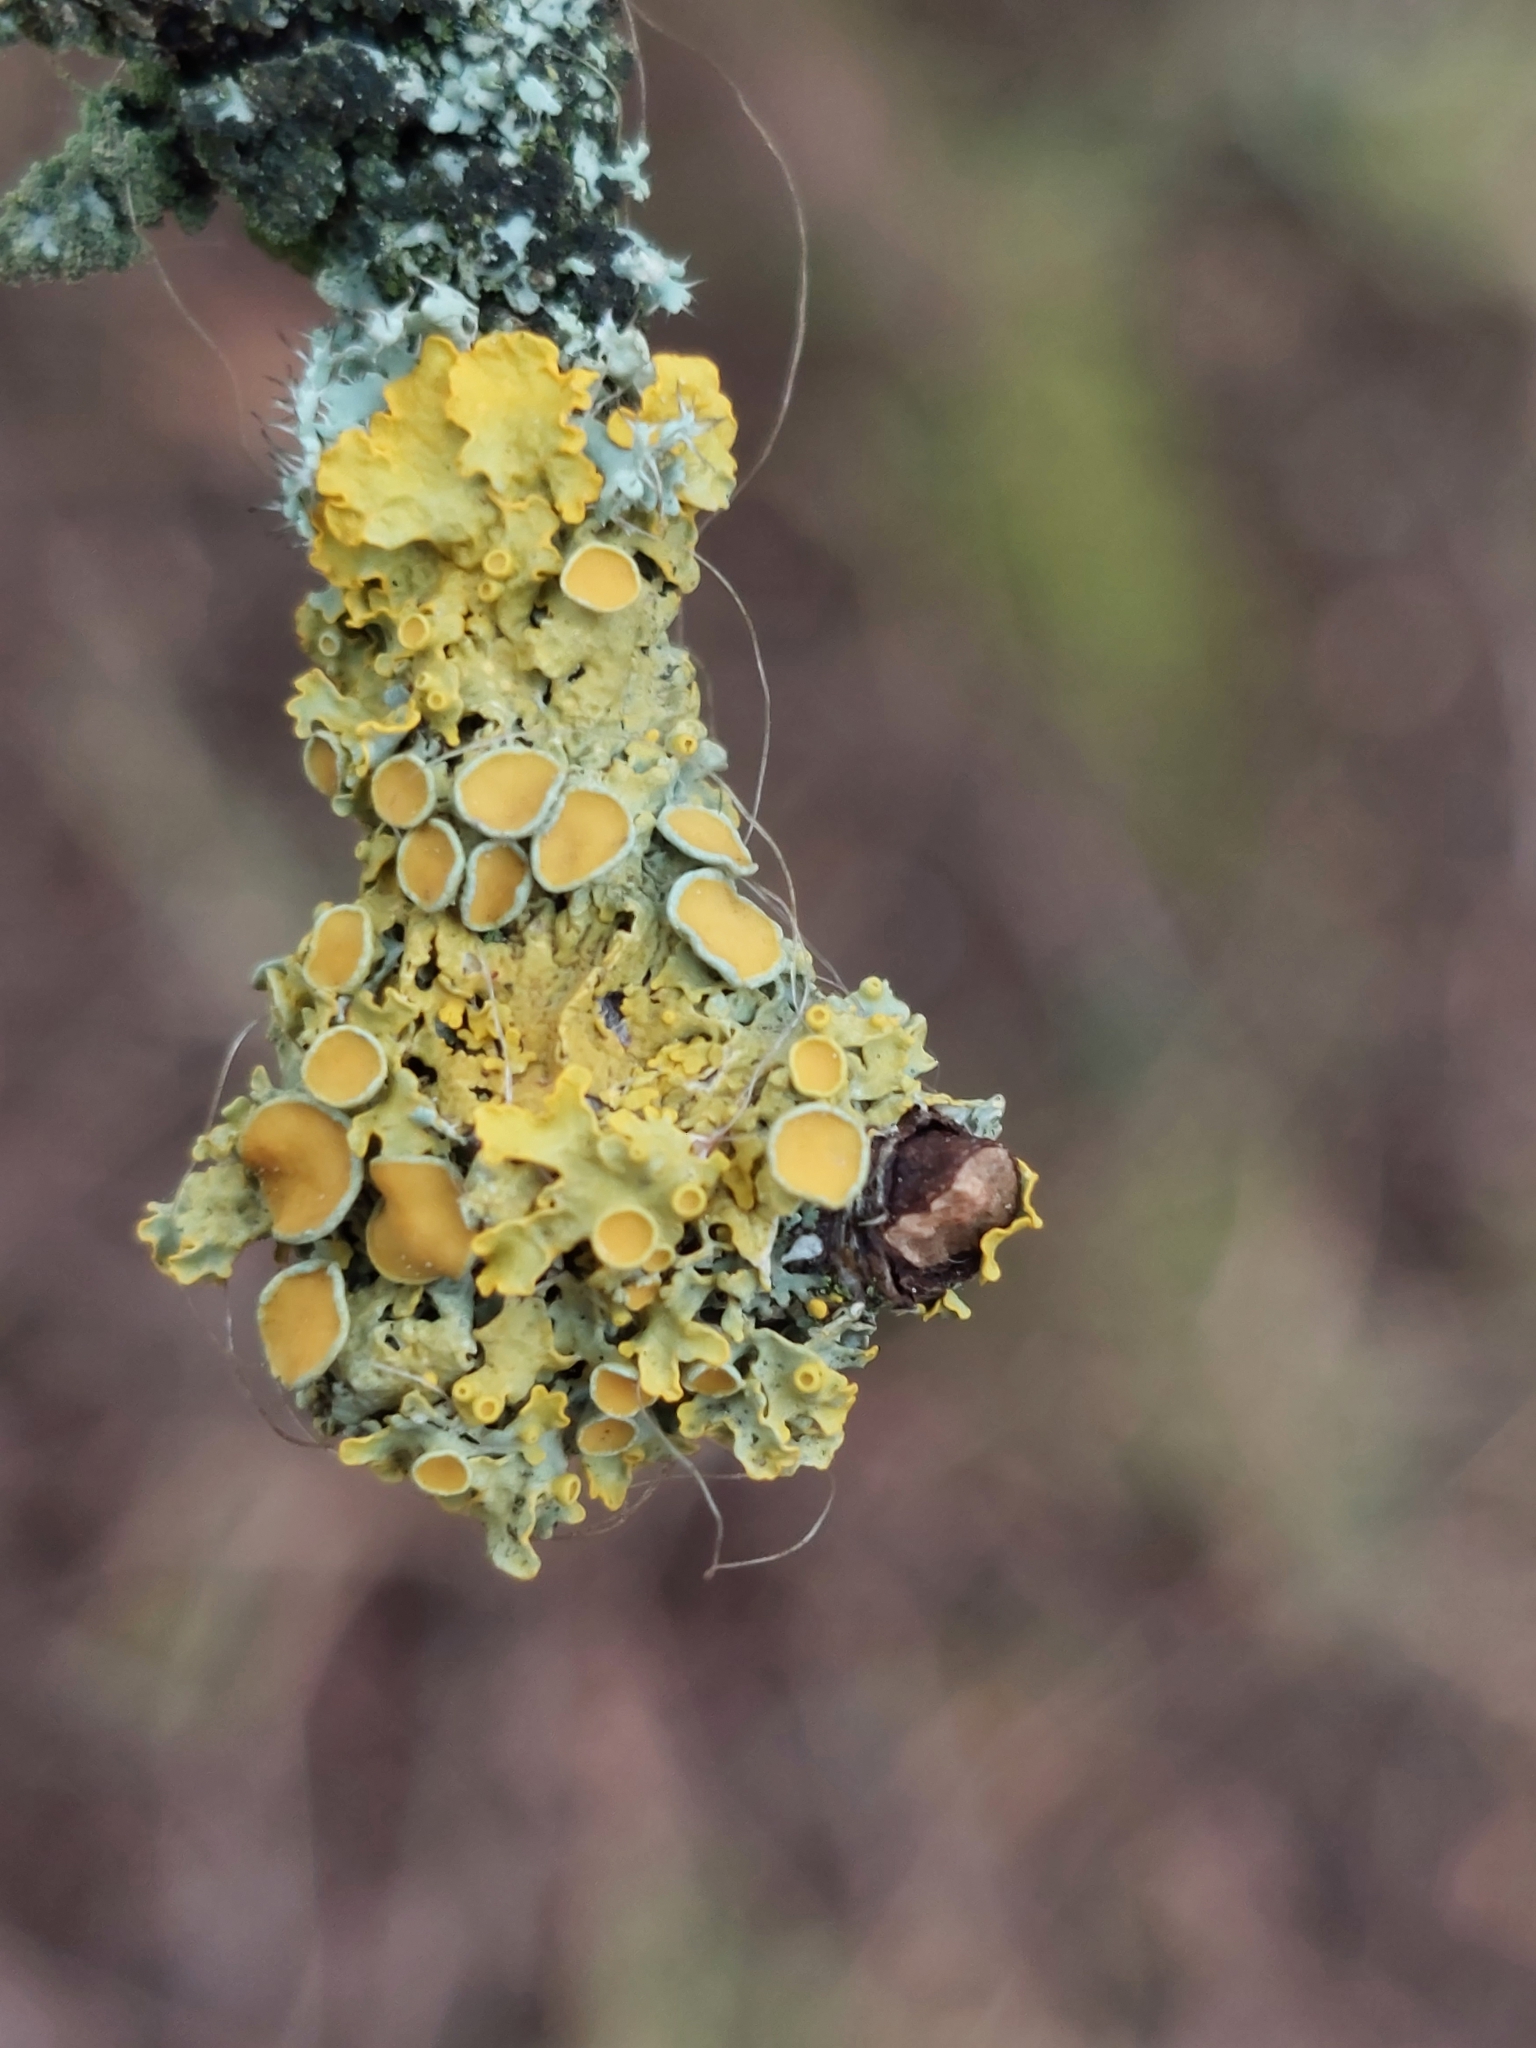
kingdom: Fungi
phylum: Ascomycota
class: Lecanoromycetes
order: Teloschistales
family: Teloschistaceae
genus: Xanthoria
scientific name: Xanthoria parietina
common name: Common orange lichen
